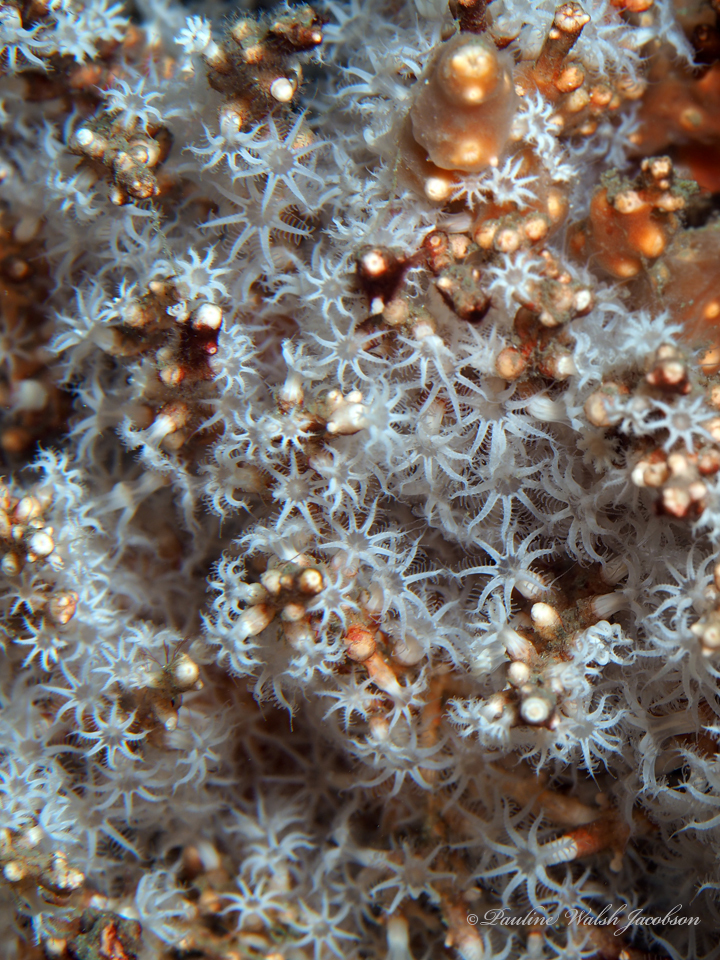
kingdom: Animalia
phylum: Cnidaria
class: Anthozoa
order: Malacalcyonacea
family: Carijoidae
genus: Carijoa
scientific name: Carijoa riisei
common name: Snowflake coral
